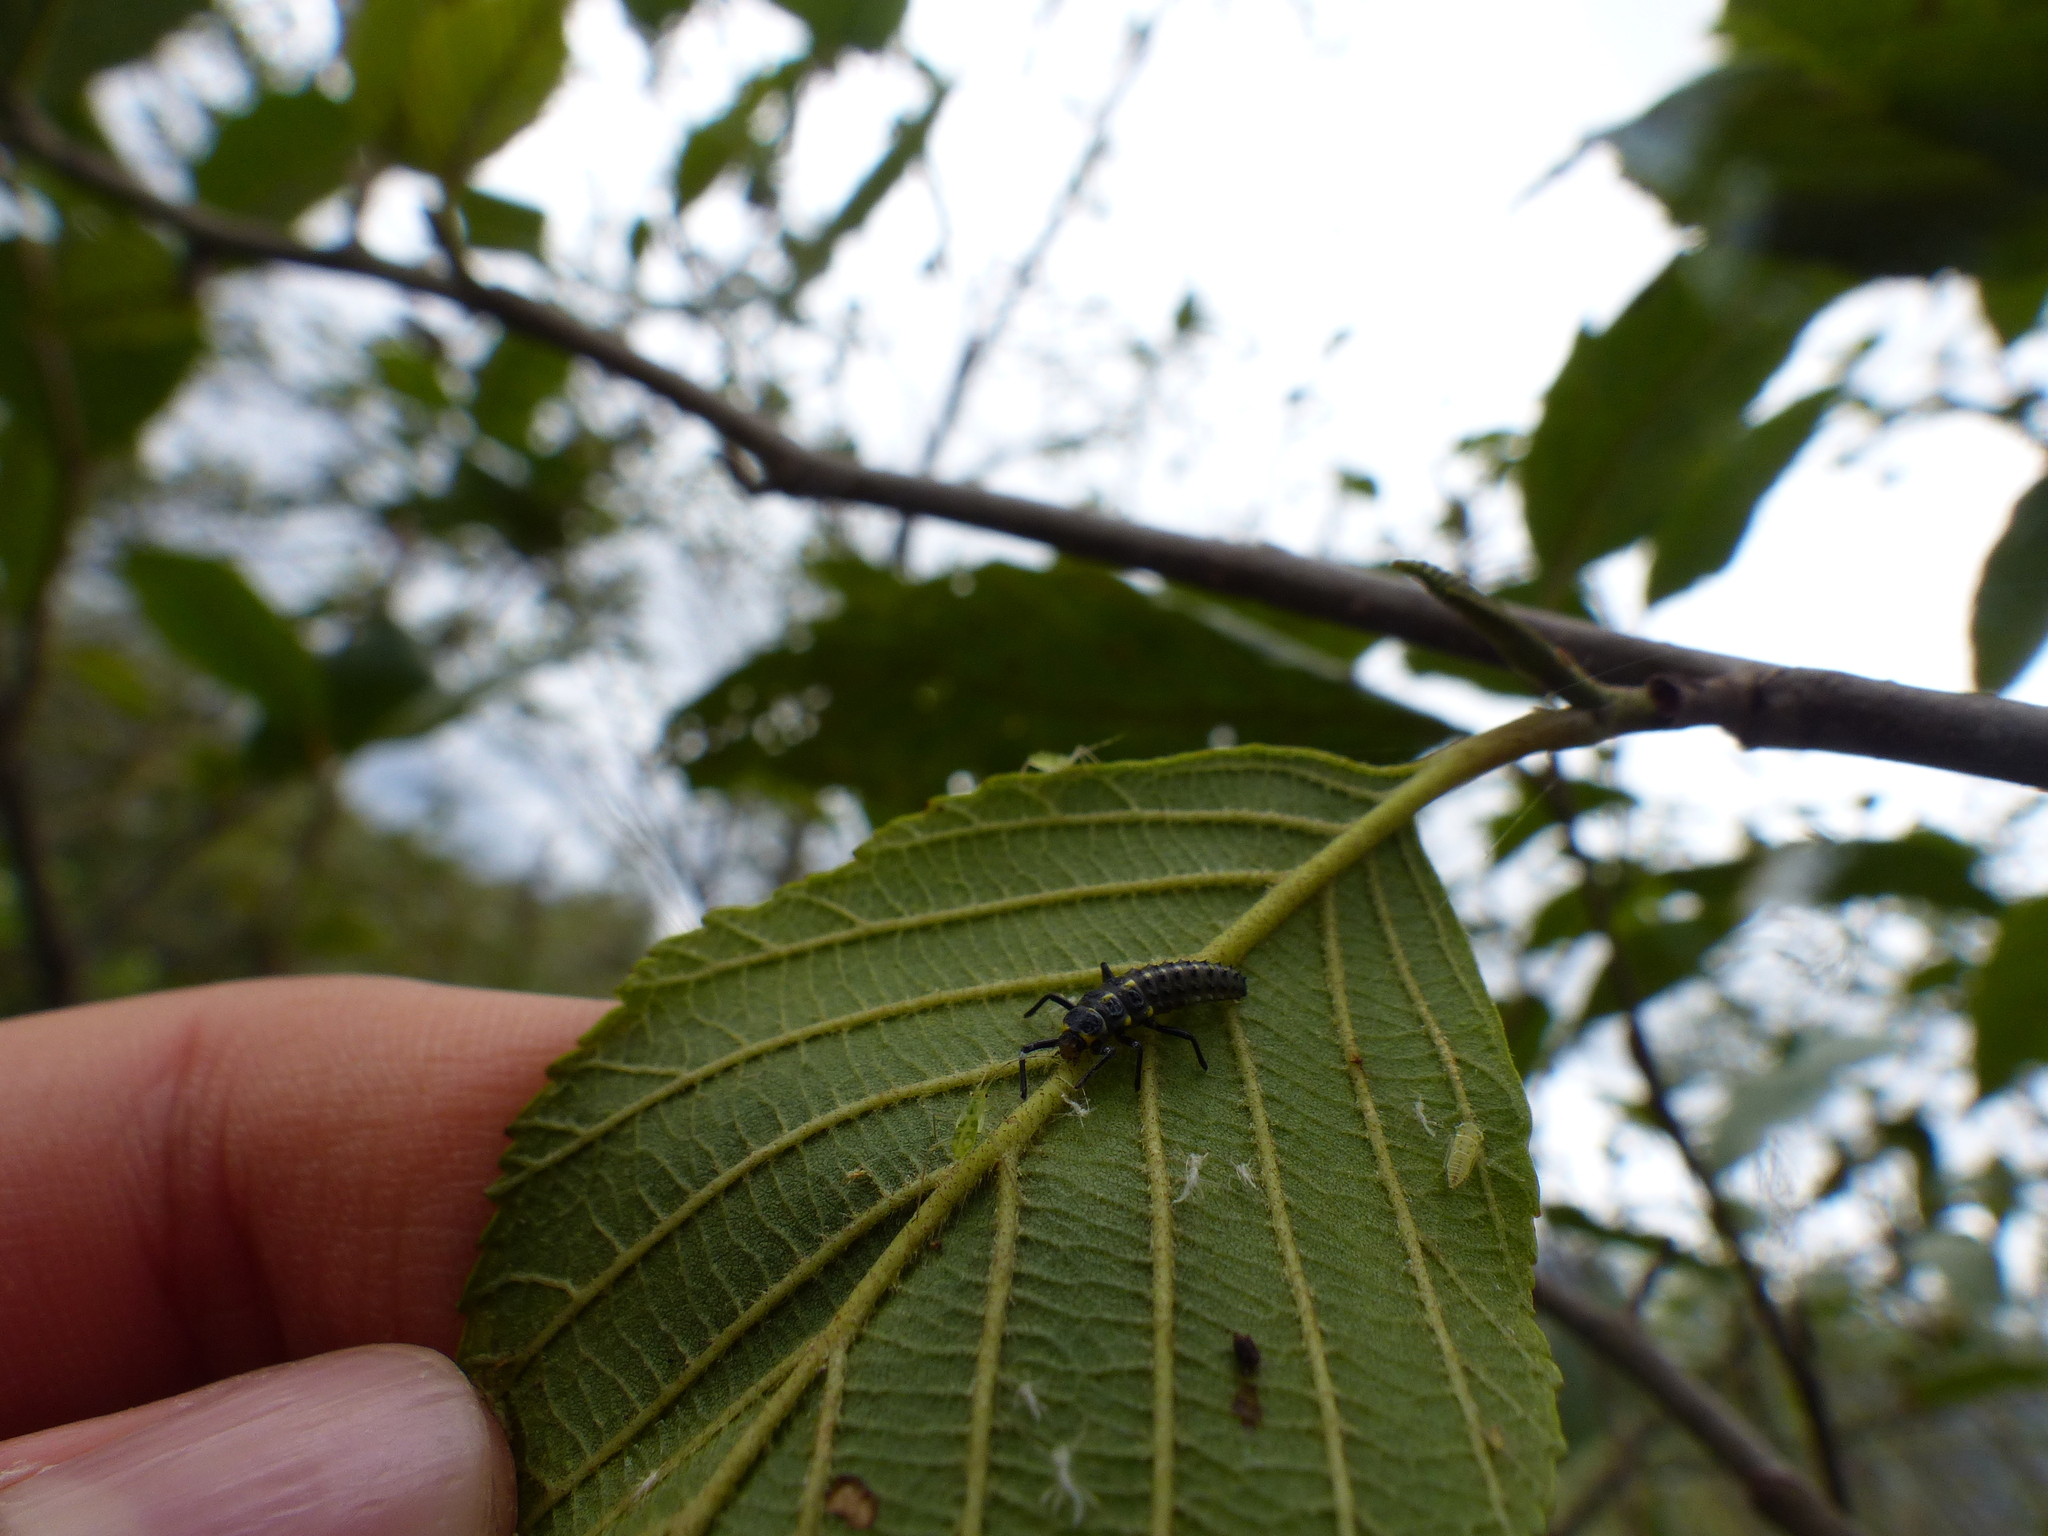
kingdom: Animalia
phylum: Arthropoda
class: Insecta
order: Coleoptera
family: Coccinellidae
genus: Neda
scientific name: Neda norrisi
